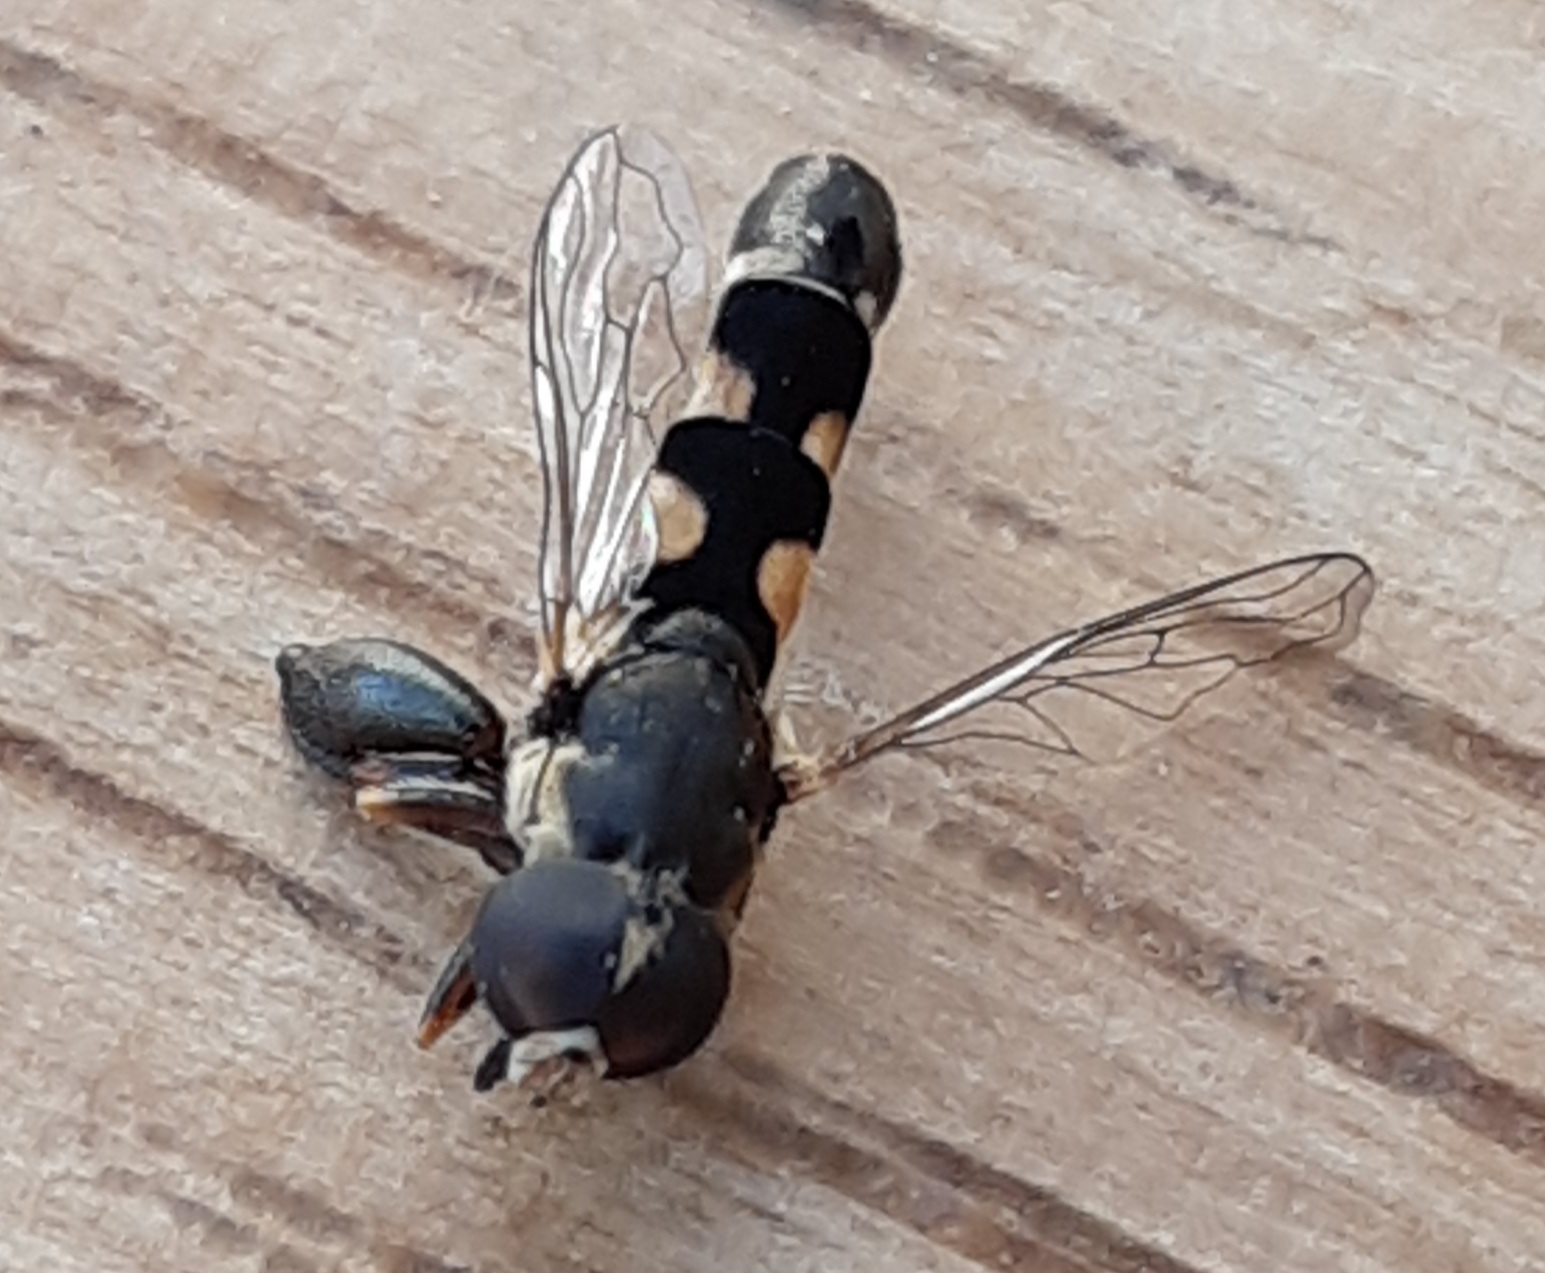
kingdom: Animalia
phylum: Arthropoda
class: Insecta
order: Diptera
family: Syrphidae
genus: Syritta
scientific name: Syritta pipiens
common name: Hover fly
